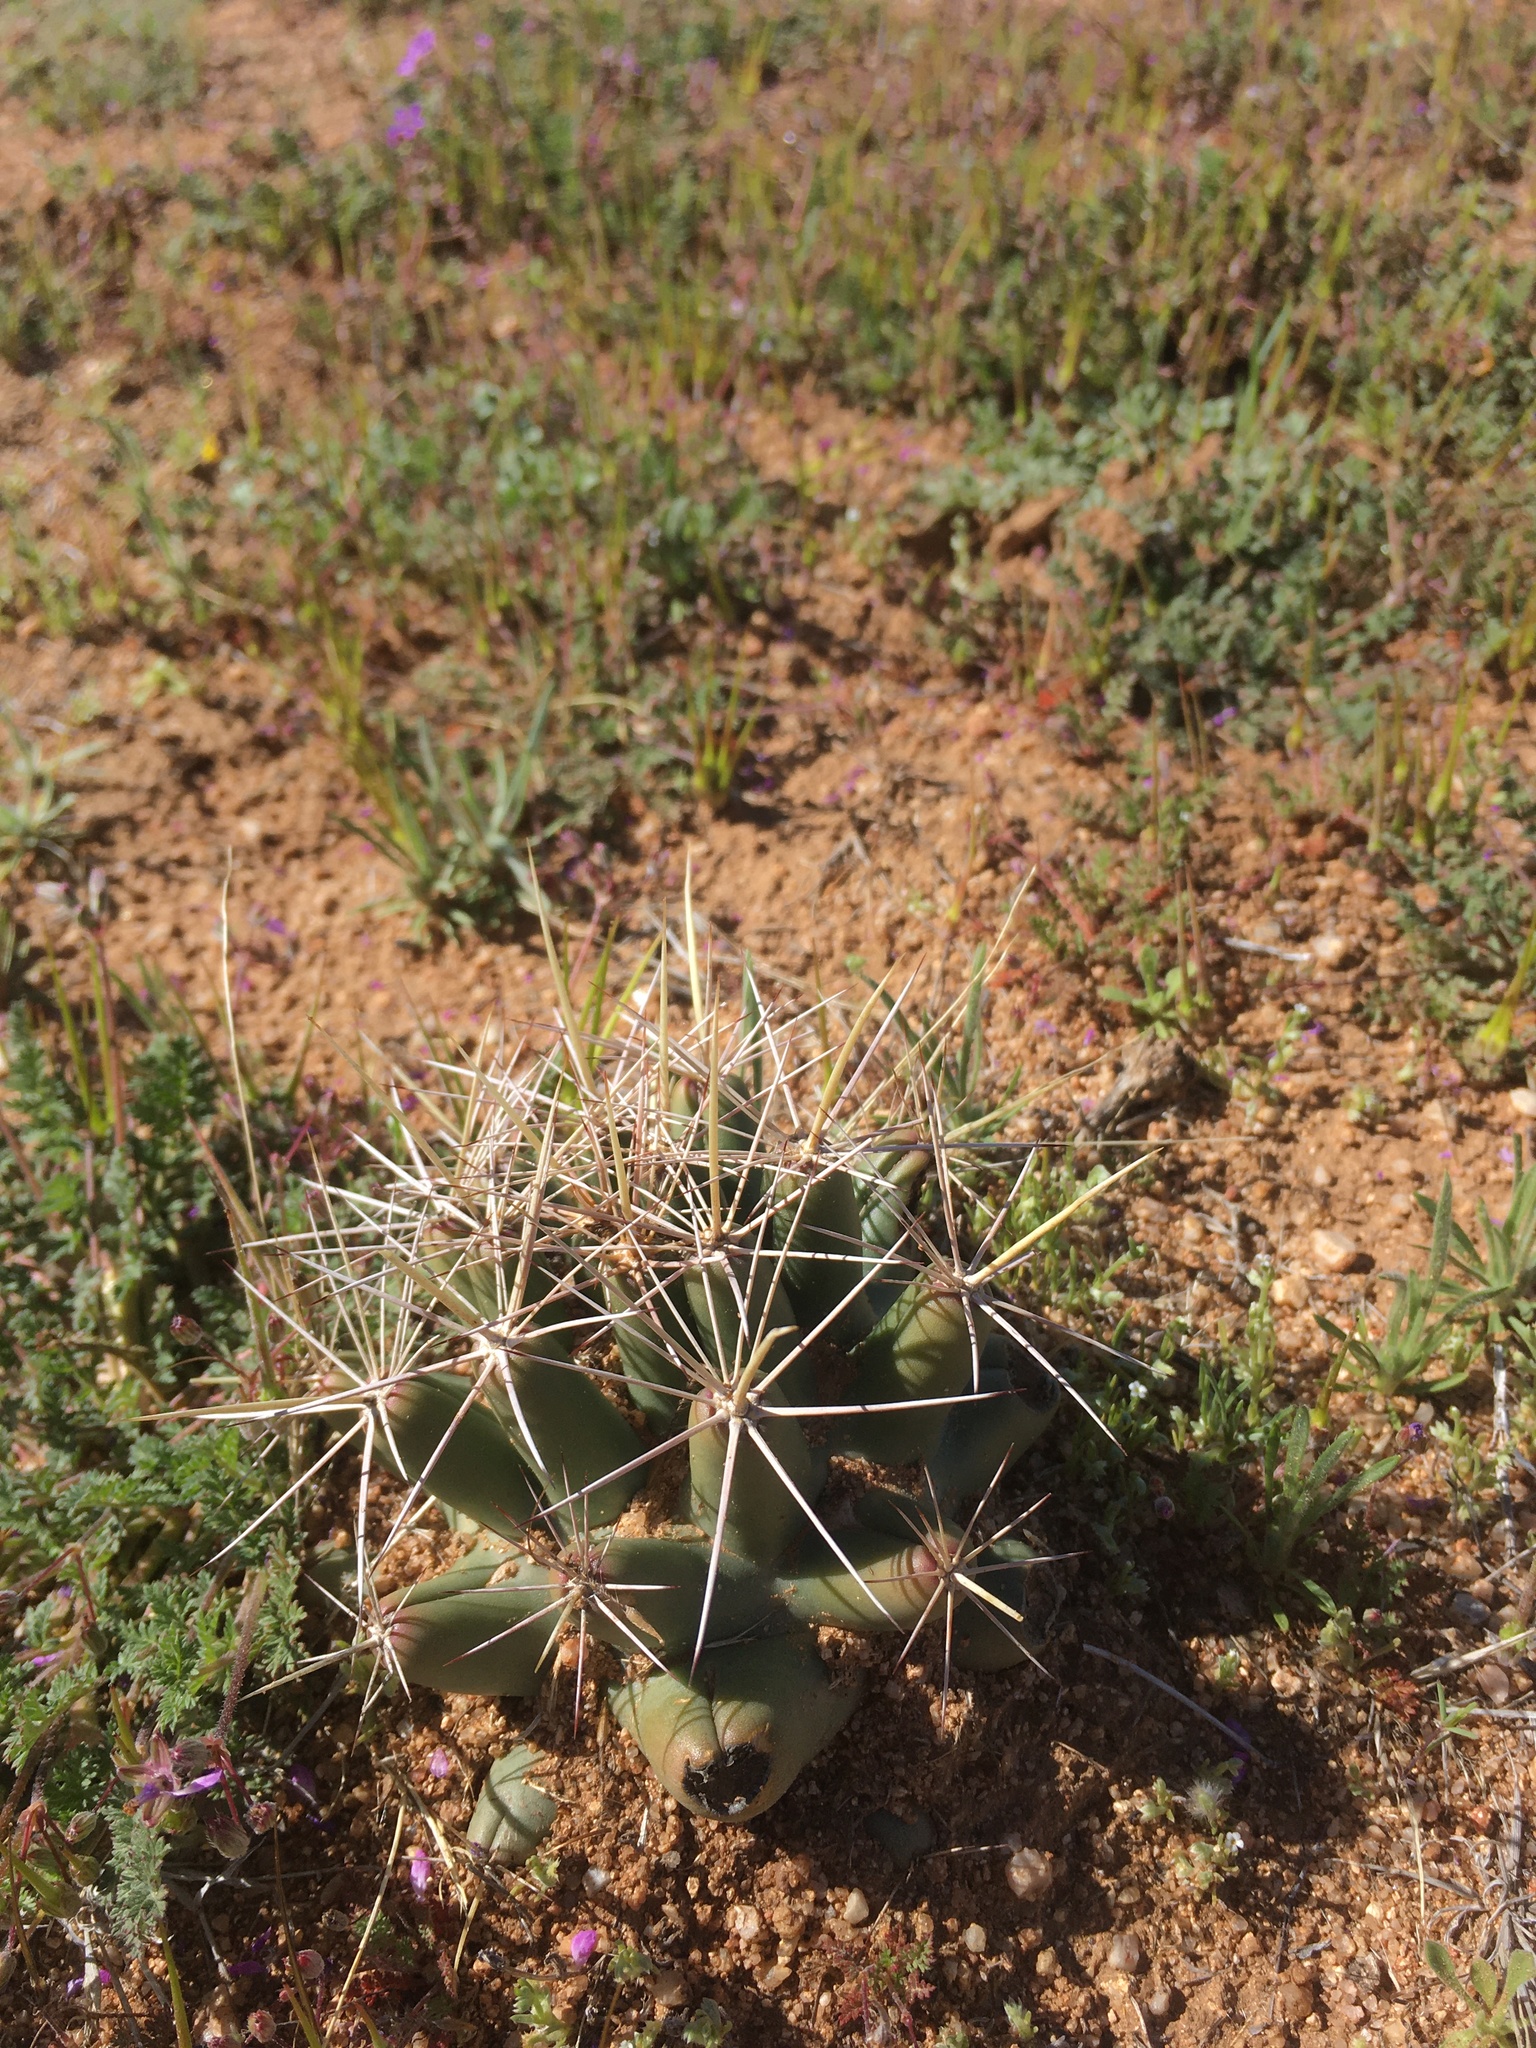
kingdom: Plantae
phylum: Tracheophyta
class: Magnoliopsida
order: Caryophyllales
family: Cactaceae
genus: Coryphantha
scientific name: Coryphantha robustispina
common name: Pima pineapple cactus
